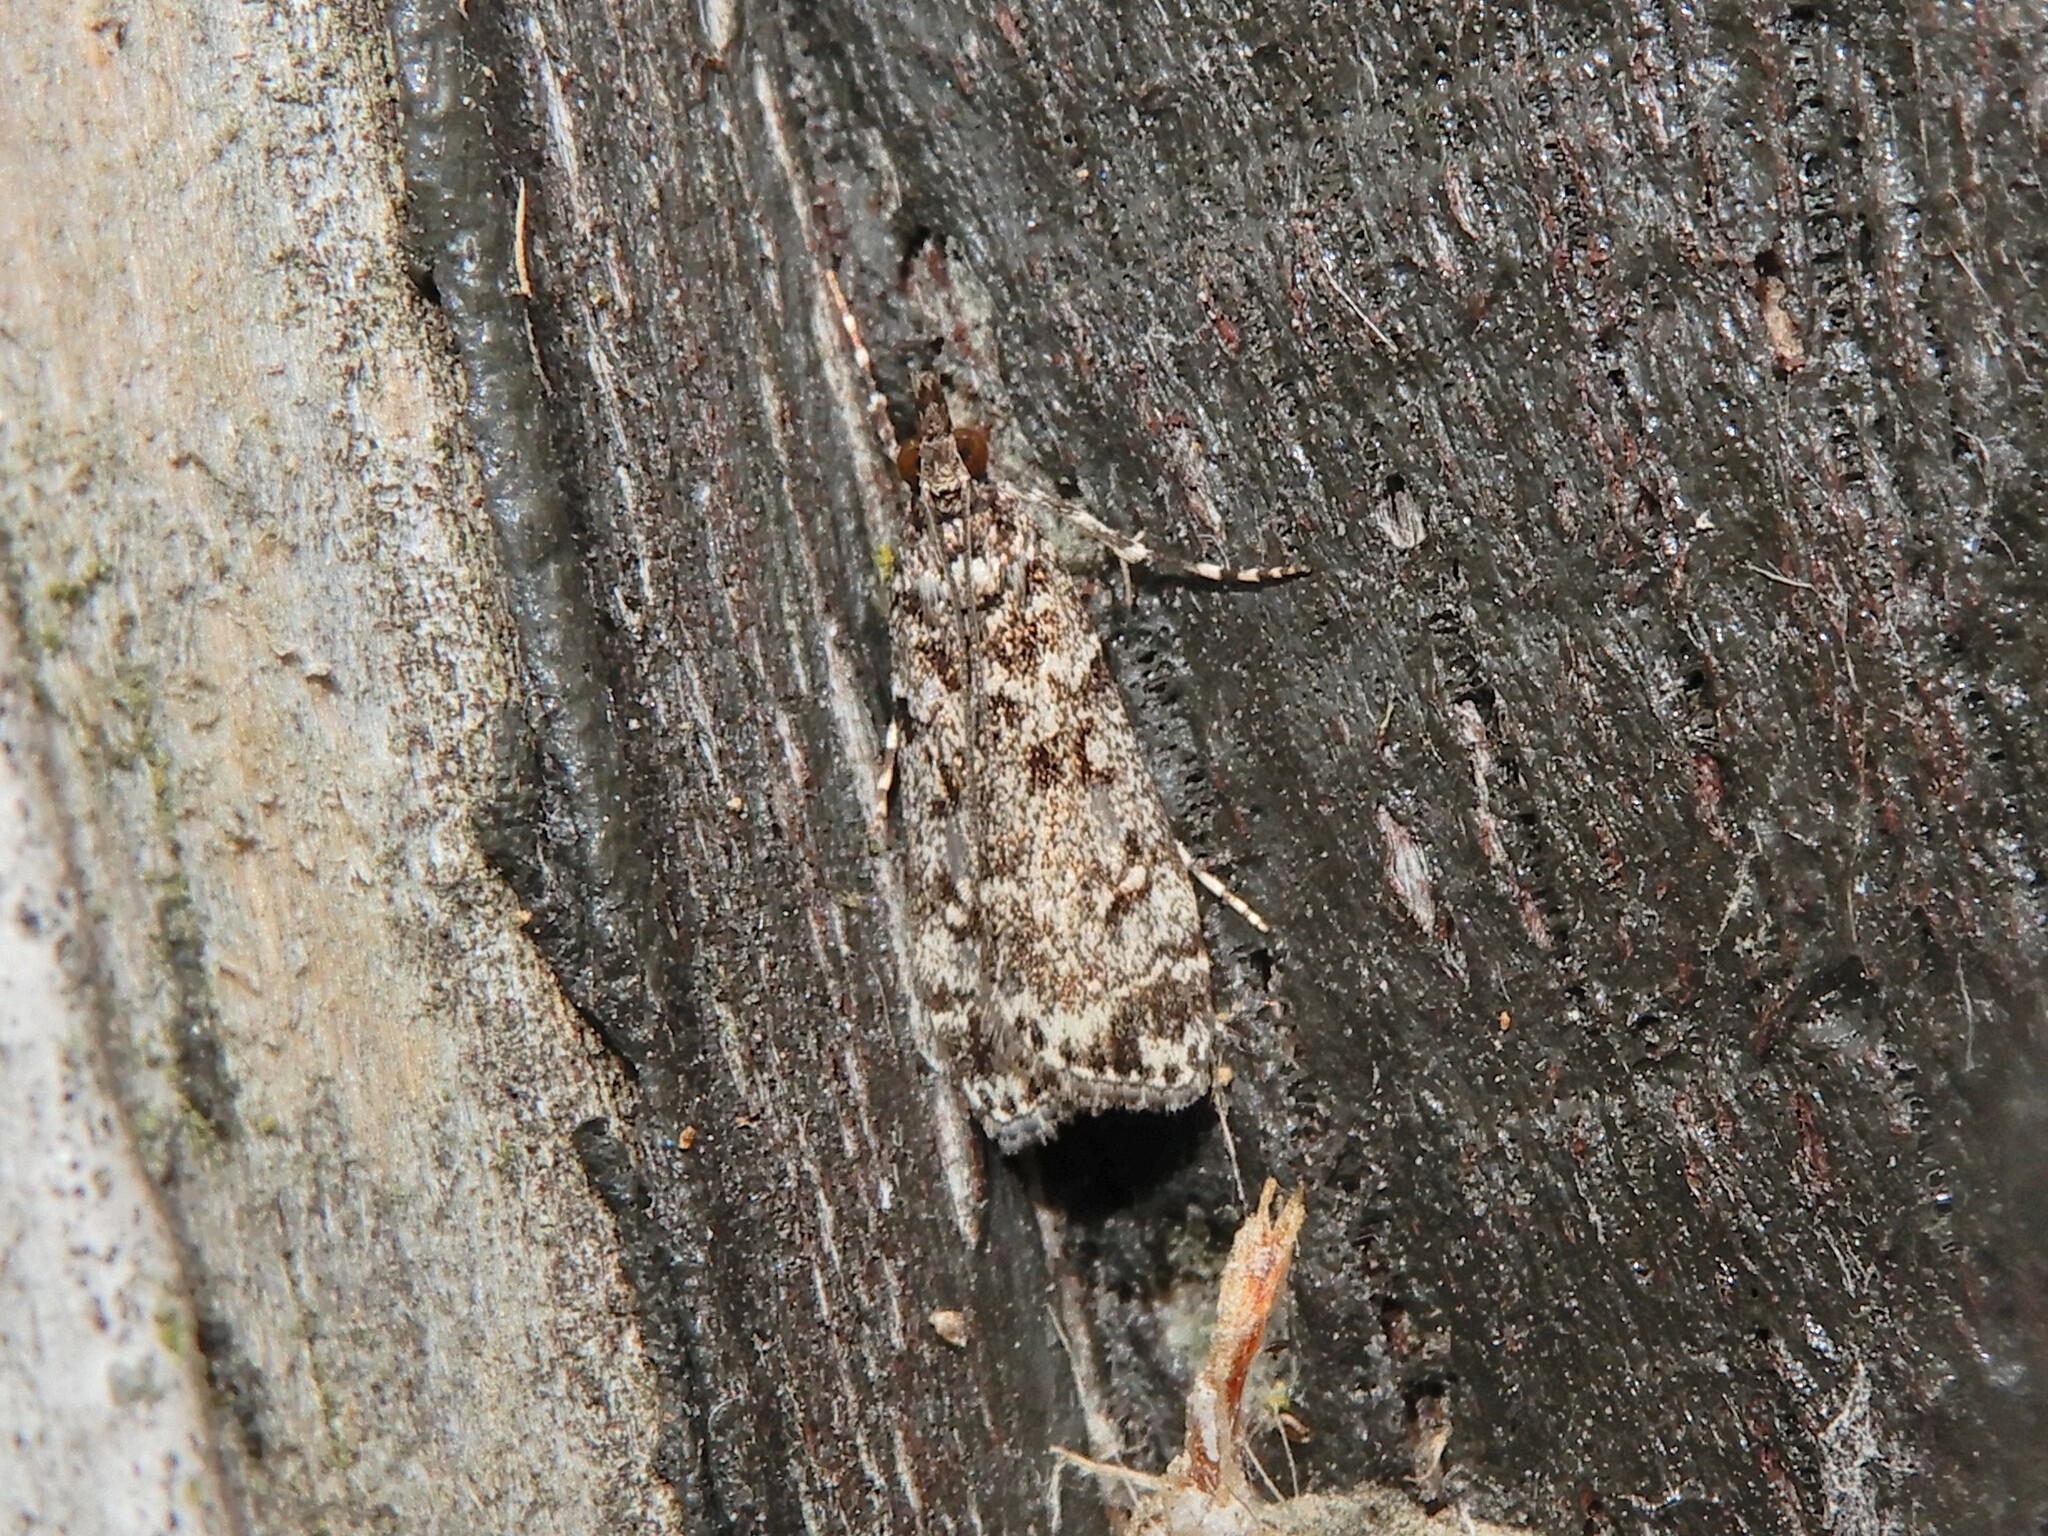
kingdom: Animalia
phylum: Arthropoda
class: Insecta
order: Lepidoptera
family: Crambidae
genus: Eudonia
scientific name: Eudonia philerga
